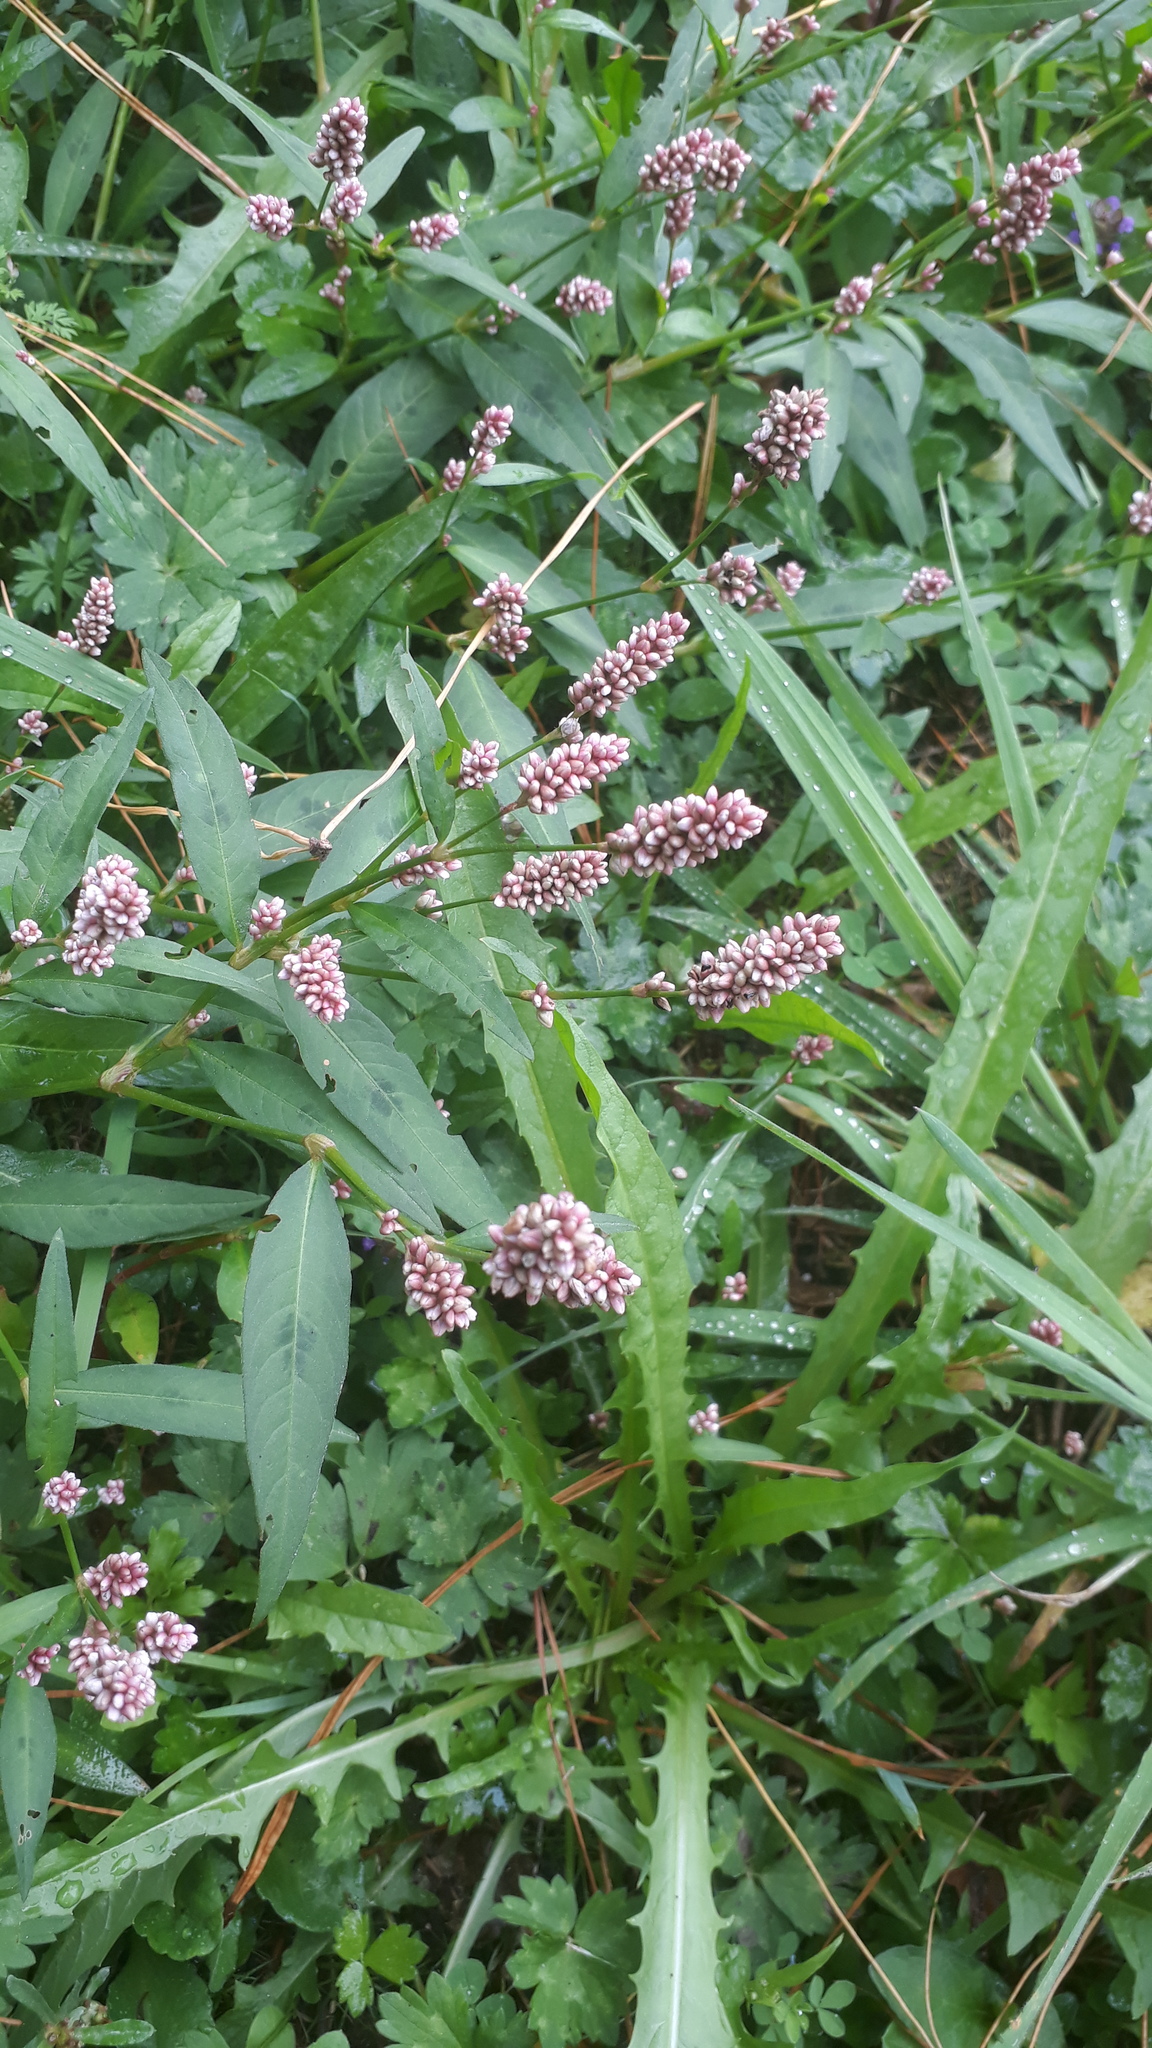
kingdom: Plantae
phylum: Tracheophyta
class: Magnoliopsida
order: Caryophyllales
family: Polygonaceae
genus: Persicaria
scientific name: Persicaria maculosa
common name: Redshank
